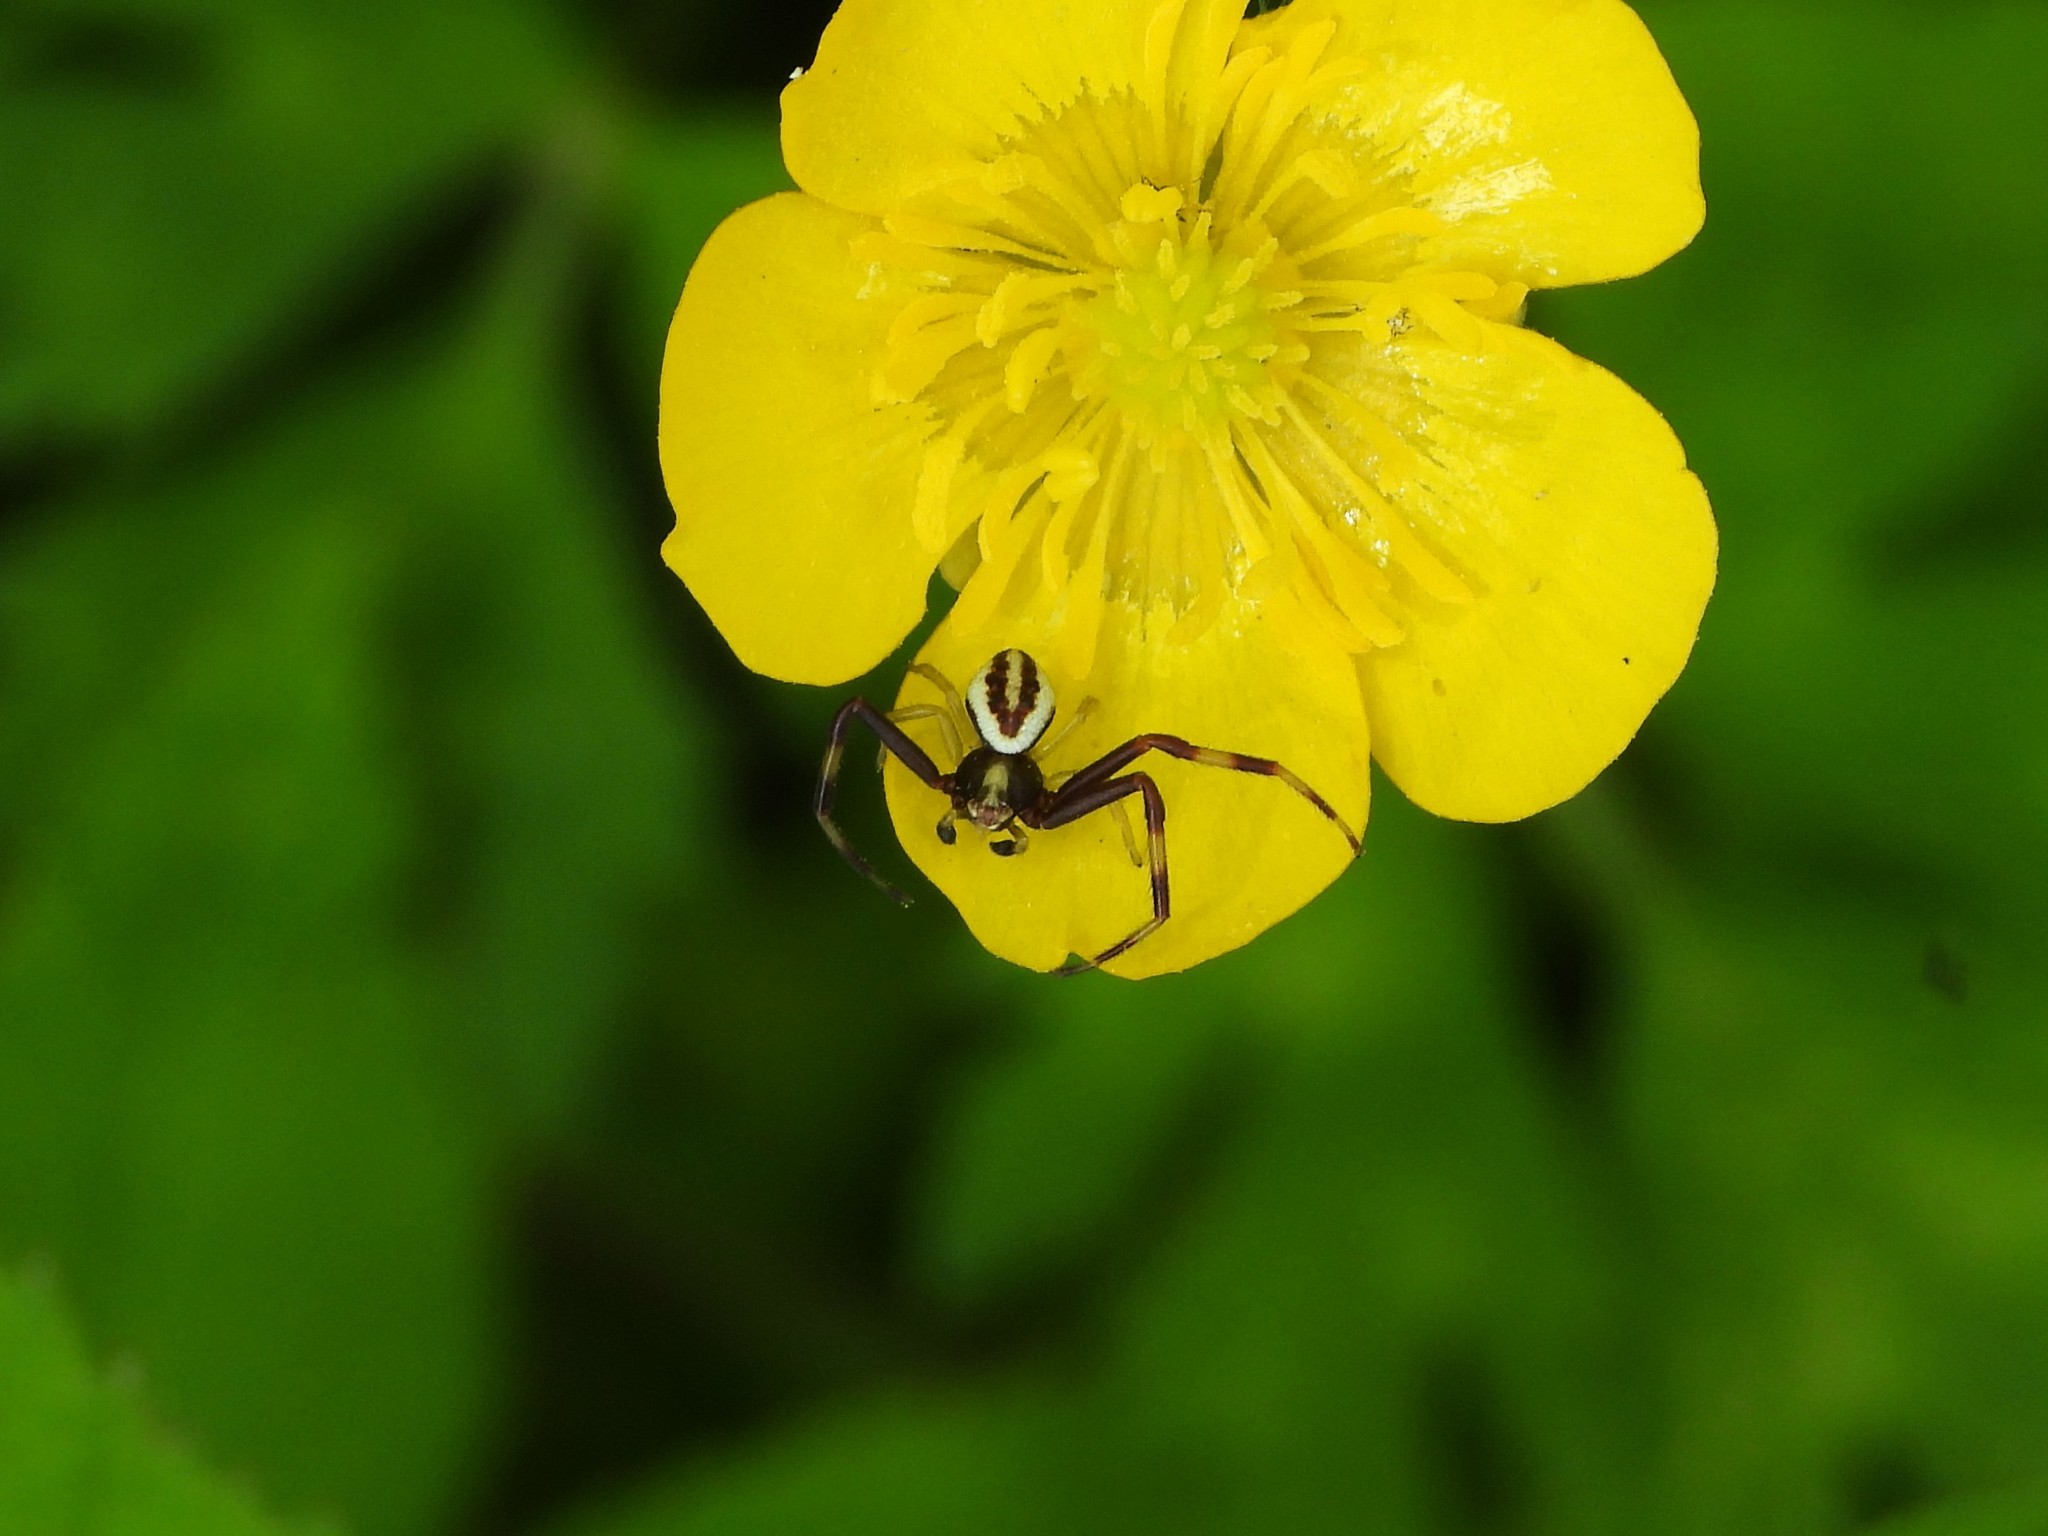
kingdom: Animalia
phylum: Arthropoda
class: Arachnida
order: Araneae
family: Thomisidae
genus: Misumena
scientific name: Misumena vatia
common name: Goldenrod crab spider
